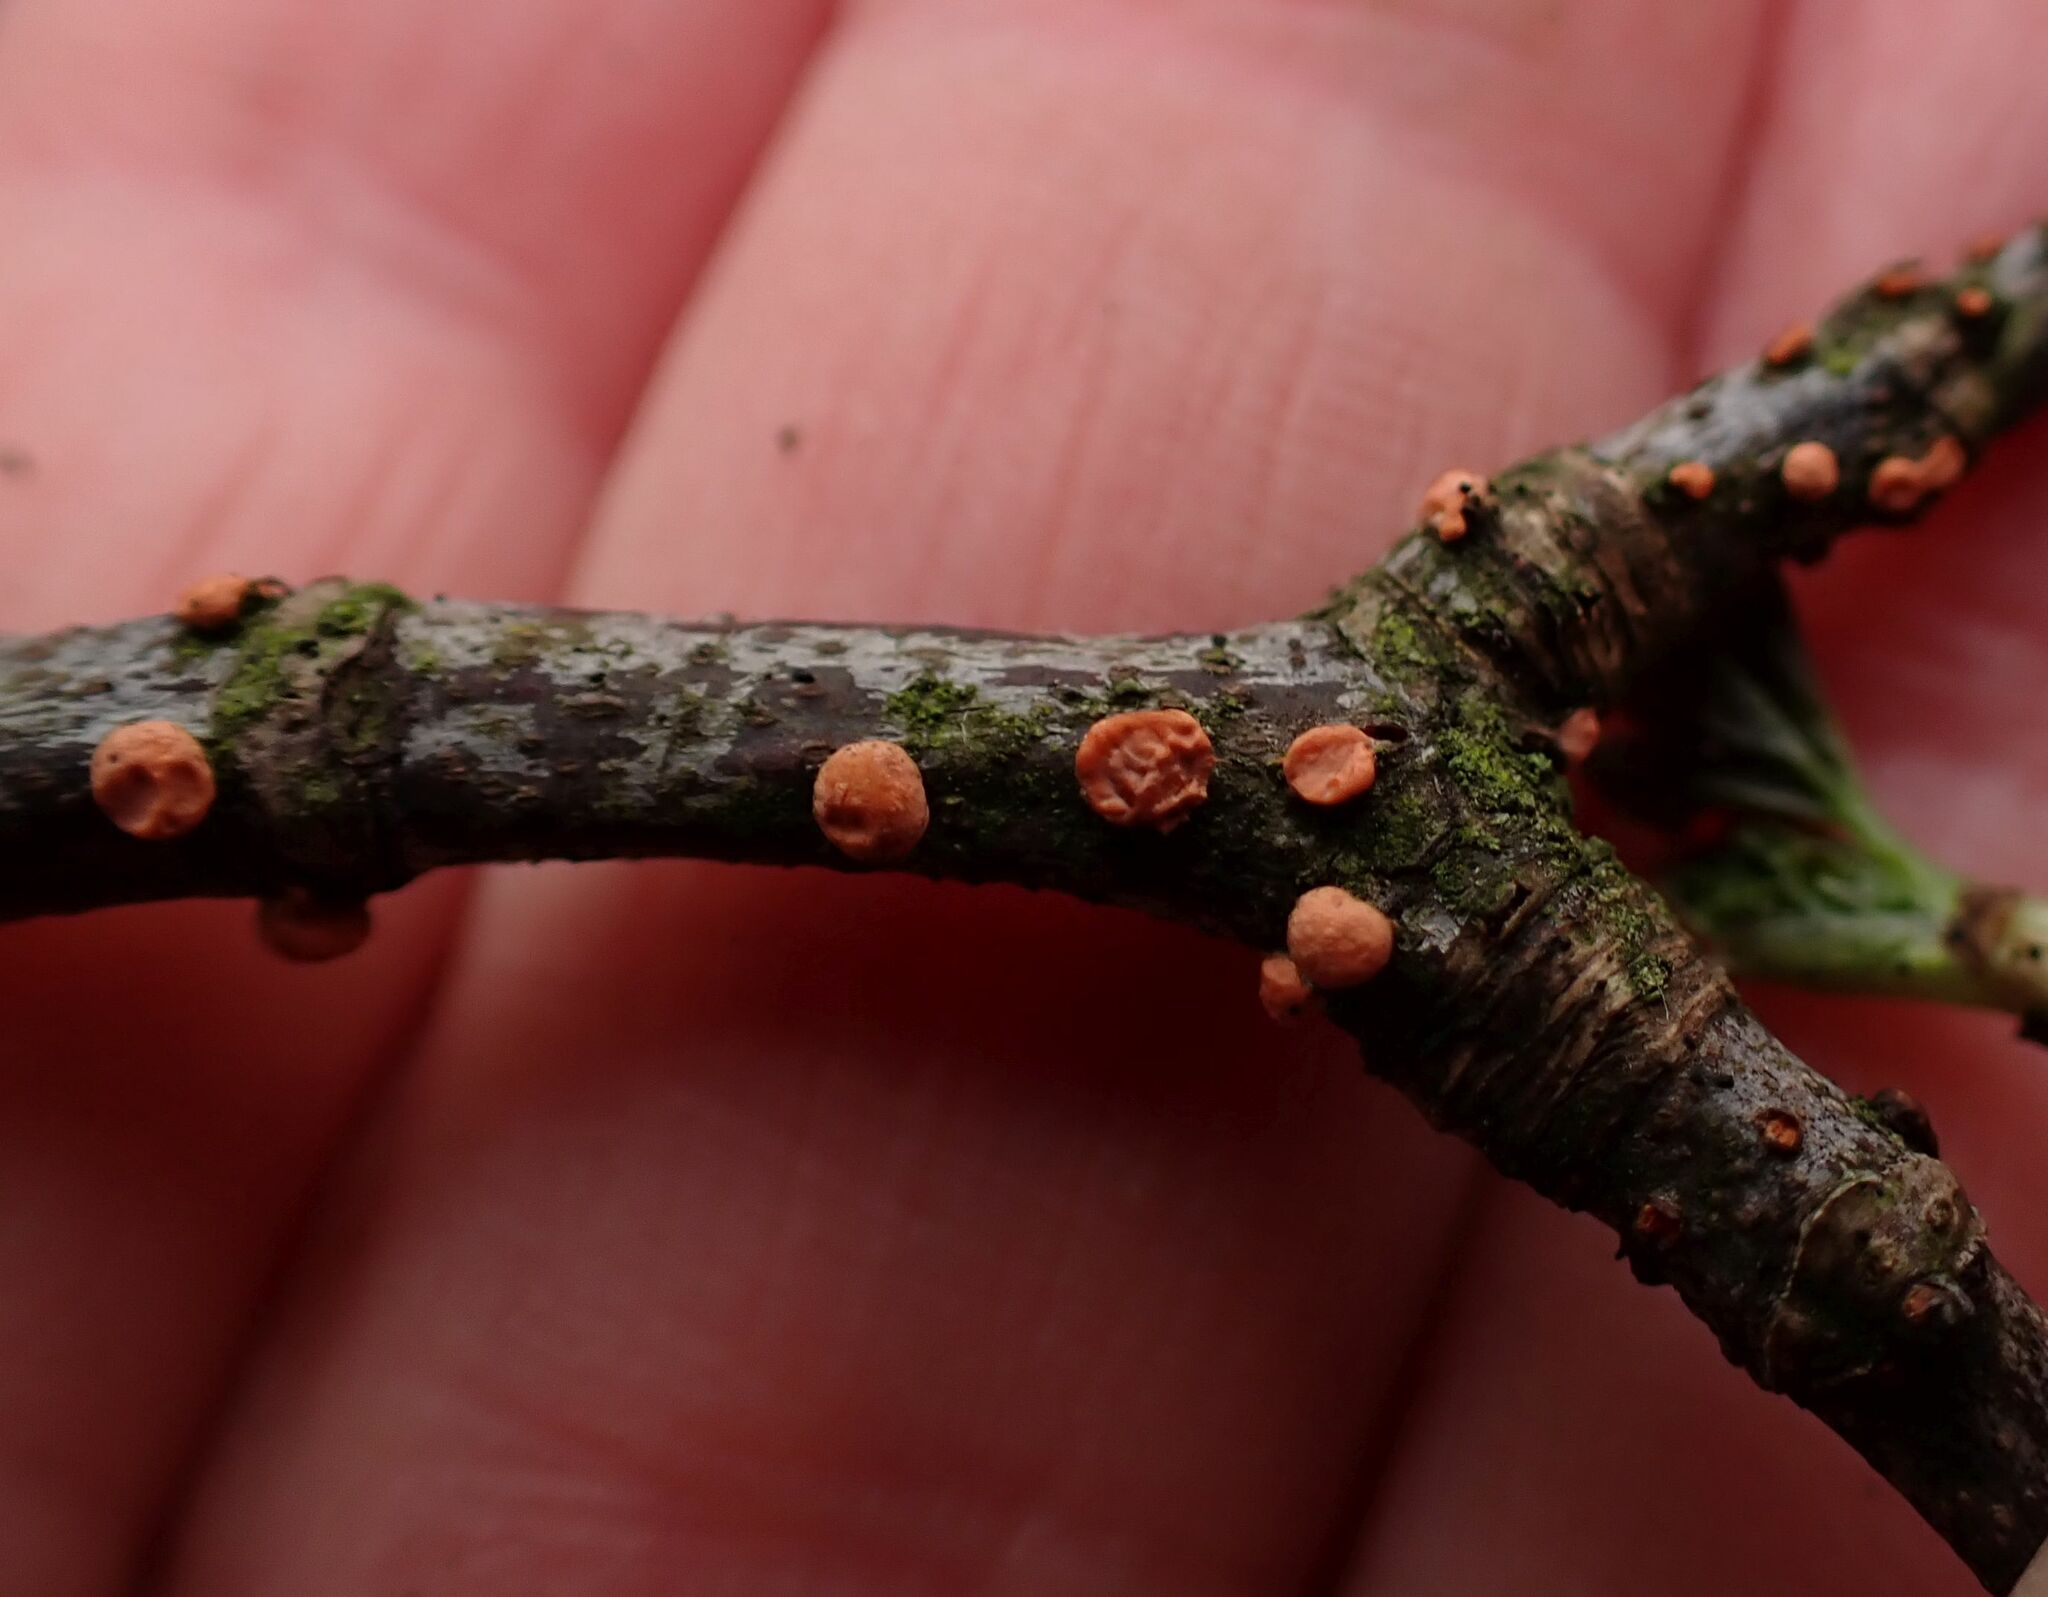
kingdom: Fungi
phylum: Ascomycota
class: Sordariomycetes
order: Hypocreales
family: Nectriaceae
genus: Nectria
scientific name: Nectria cinnabarina
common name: Coral spot
